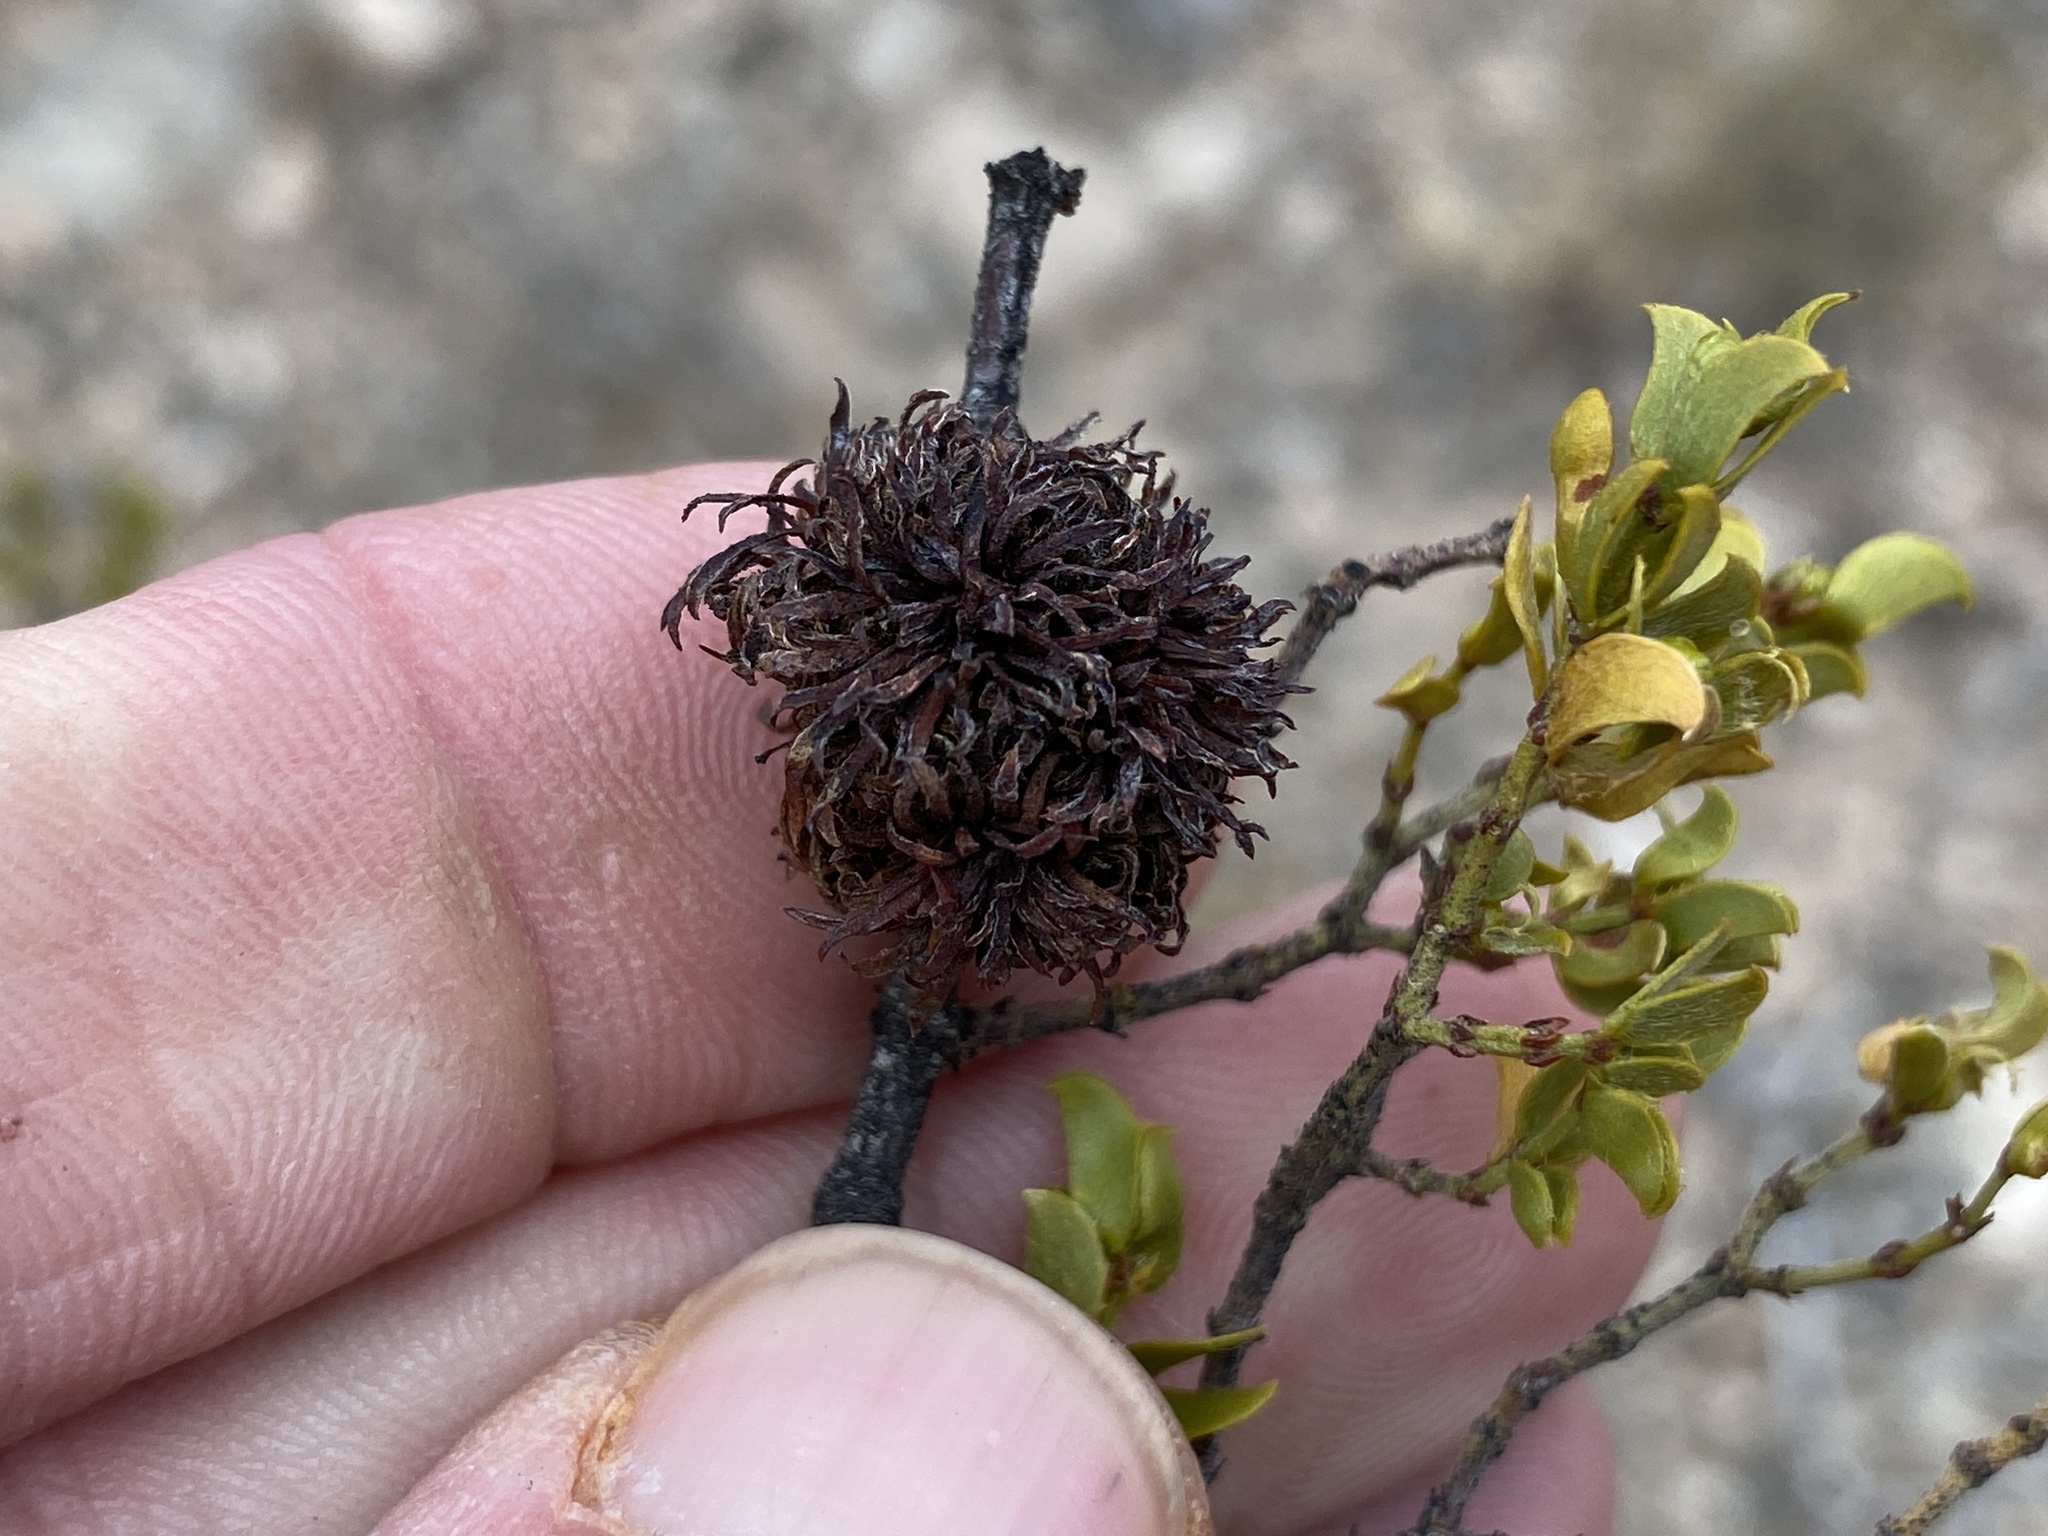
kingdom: Animalia
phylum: Arthropoda
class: Insecta
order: Diptera
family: Cecidomyiidae
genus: Asphondylia
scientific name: Asphondylia auripila
